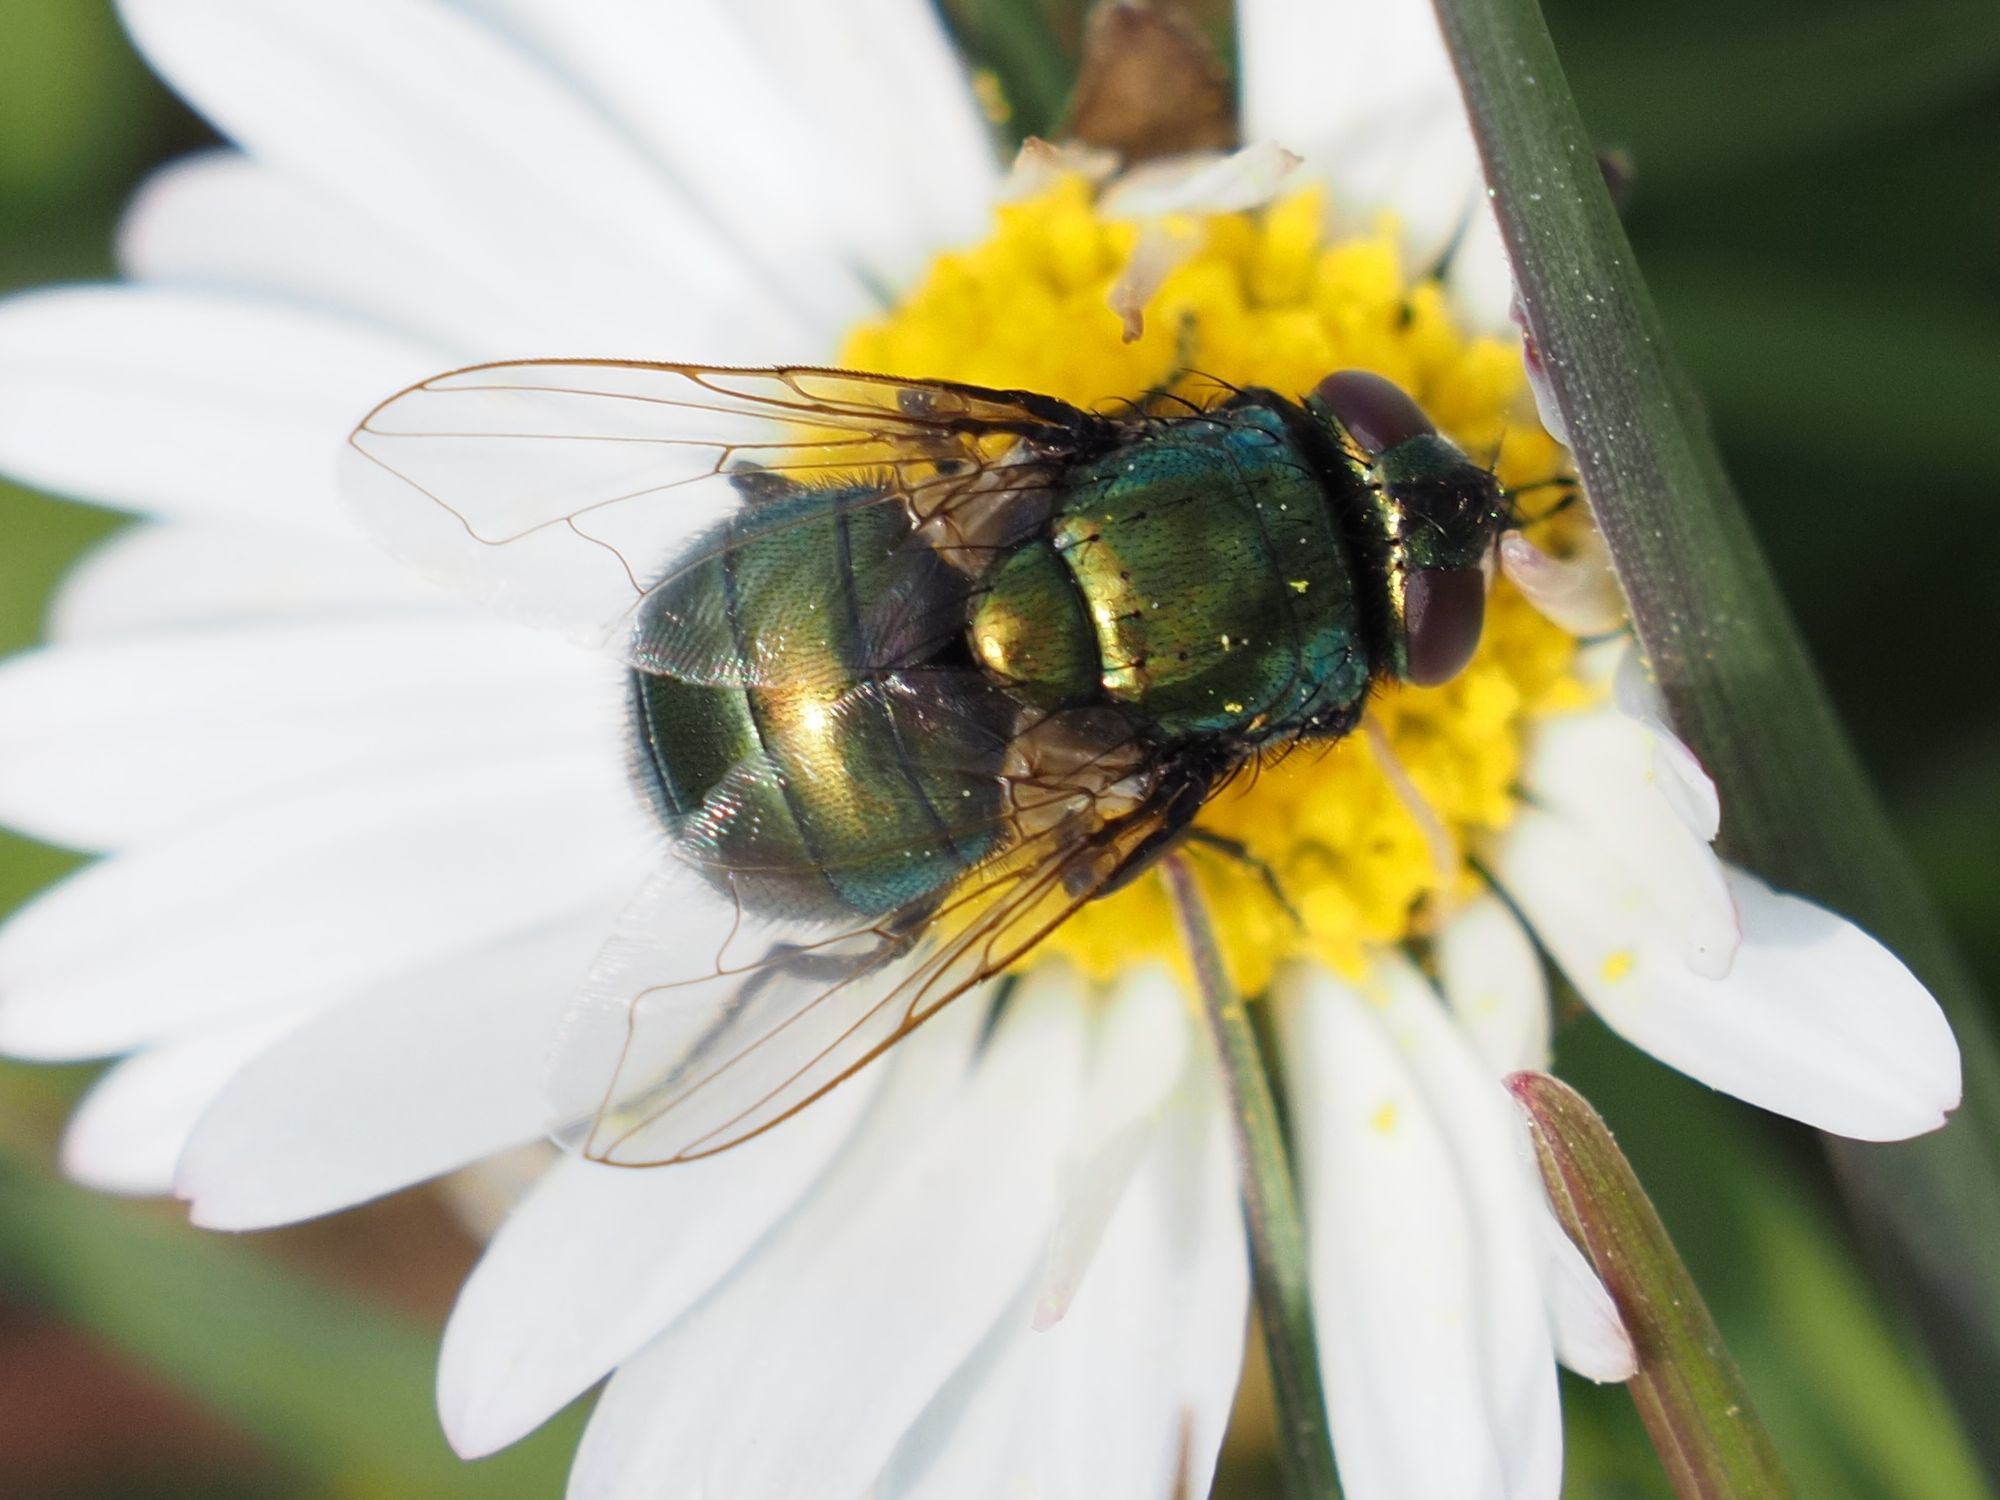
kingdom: Animalia
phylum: Arthropoda
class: Insecta
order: Diptera
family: Muscidae
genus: Neomyia
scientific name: Neomyia cornicina
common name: House fly
